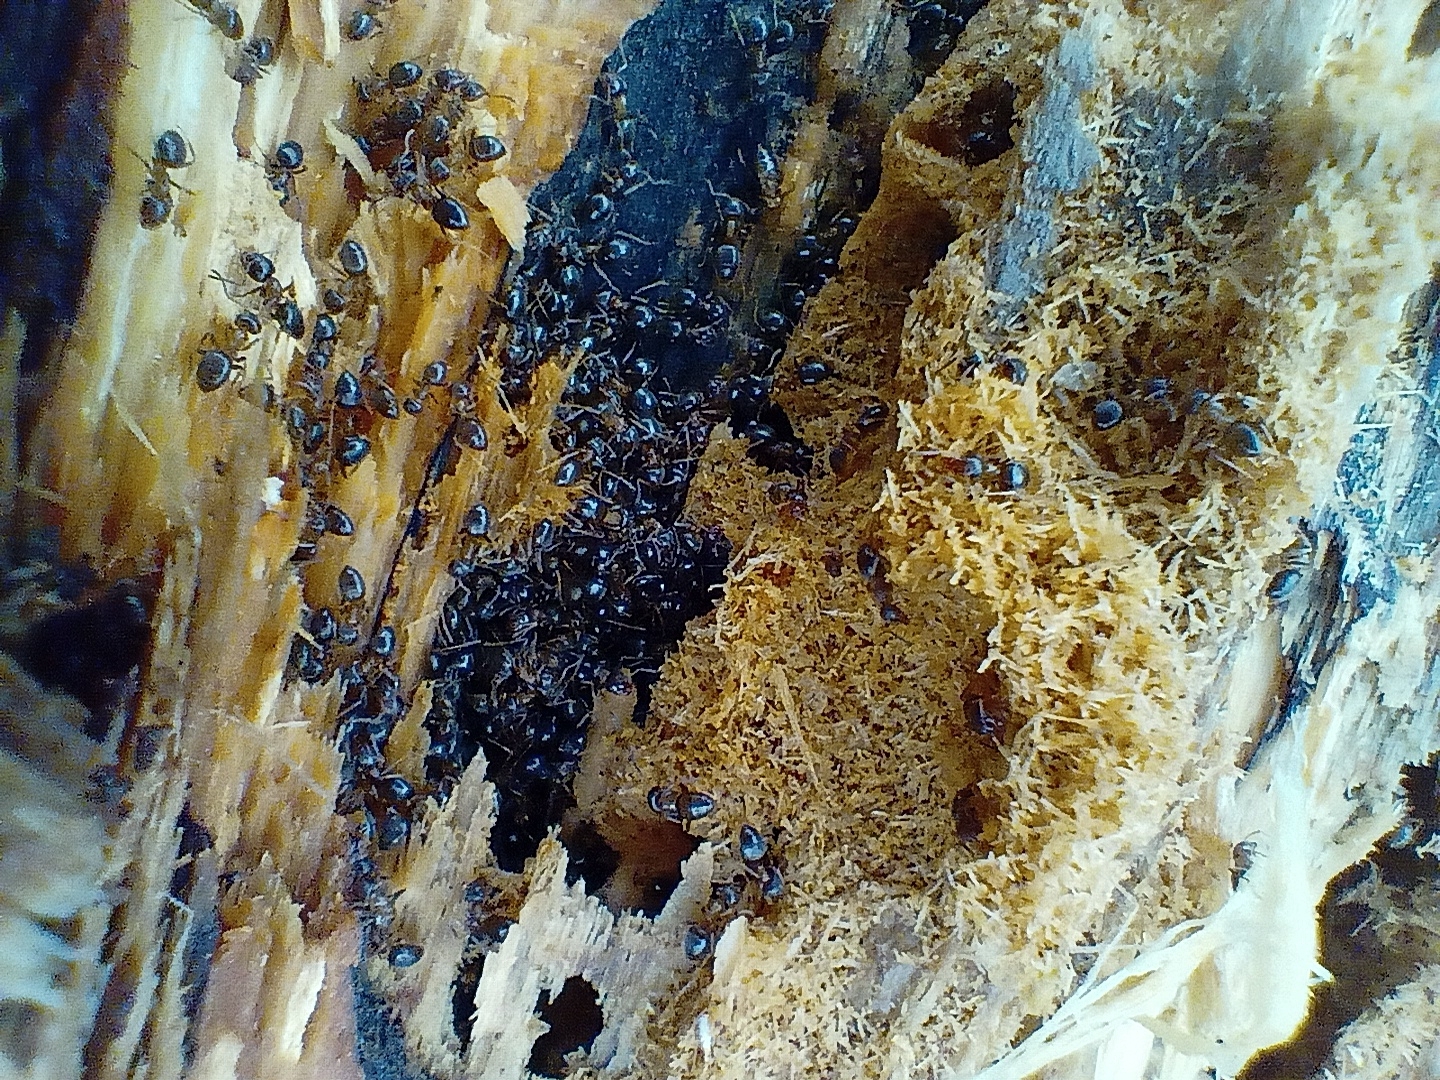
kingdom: Animalia
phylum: Arthropoda
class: Insecta
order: Hymenoptera
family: Formicidae
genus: Lasius
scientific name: Lasius brunneus
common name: Brown ant
